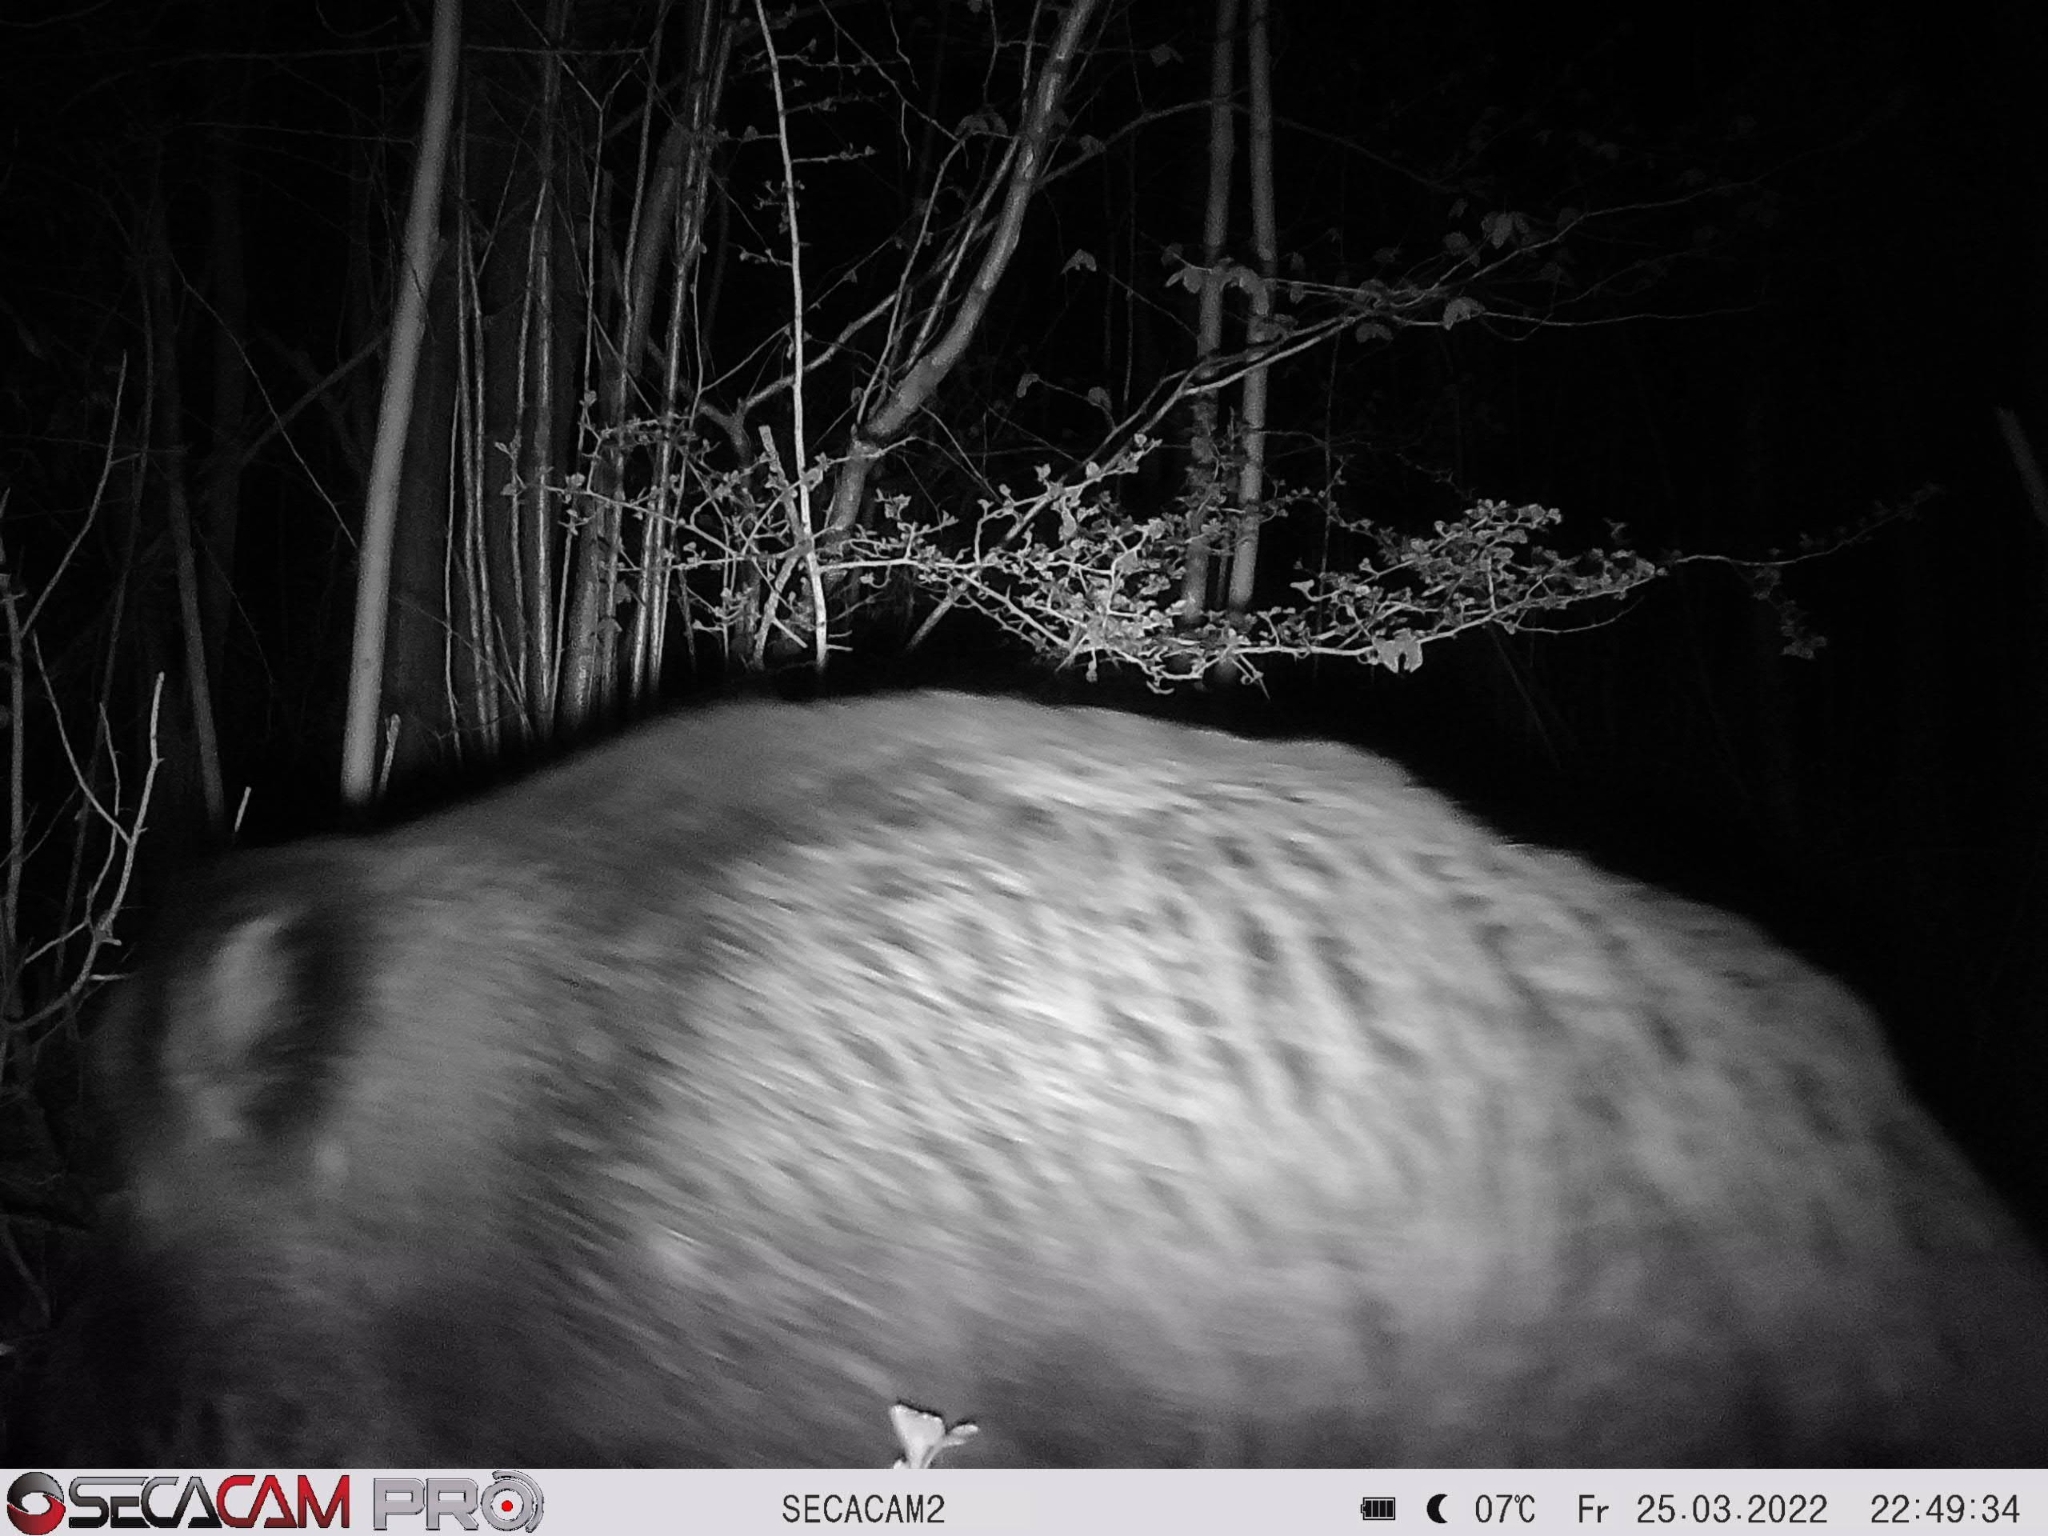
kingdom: Animalia
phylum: Chordata
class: Mammalia
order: Artiodactyla
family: Suidae
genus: Sus
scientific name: Sus scrofa
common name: Wild boar
